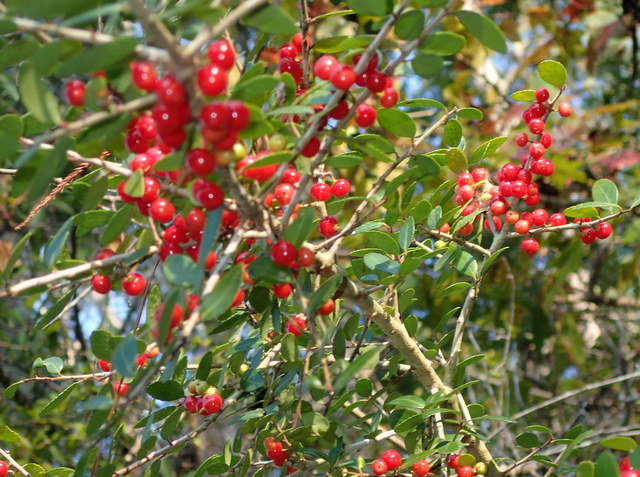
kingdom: Plantae
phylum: Tracheophyta
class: Magnoliopsida
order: Aquifoliales
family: Aquifoliaceae
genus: Ilex
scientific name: Ilex vomitoria
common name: Yaupon holly
